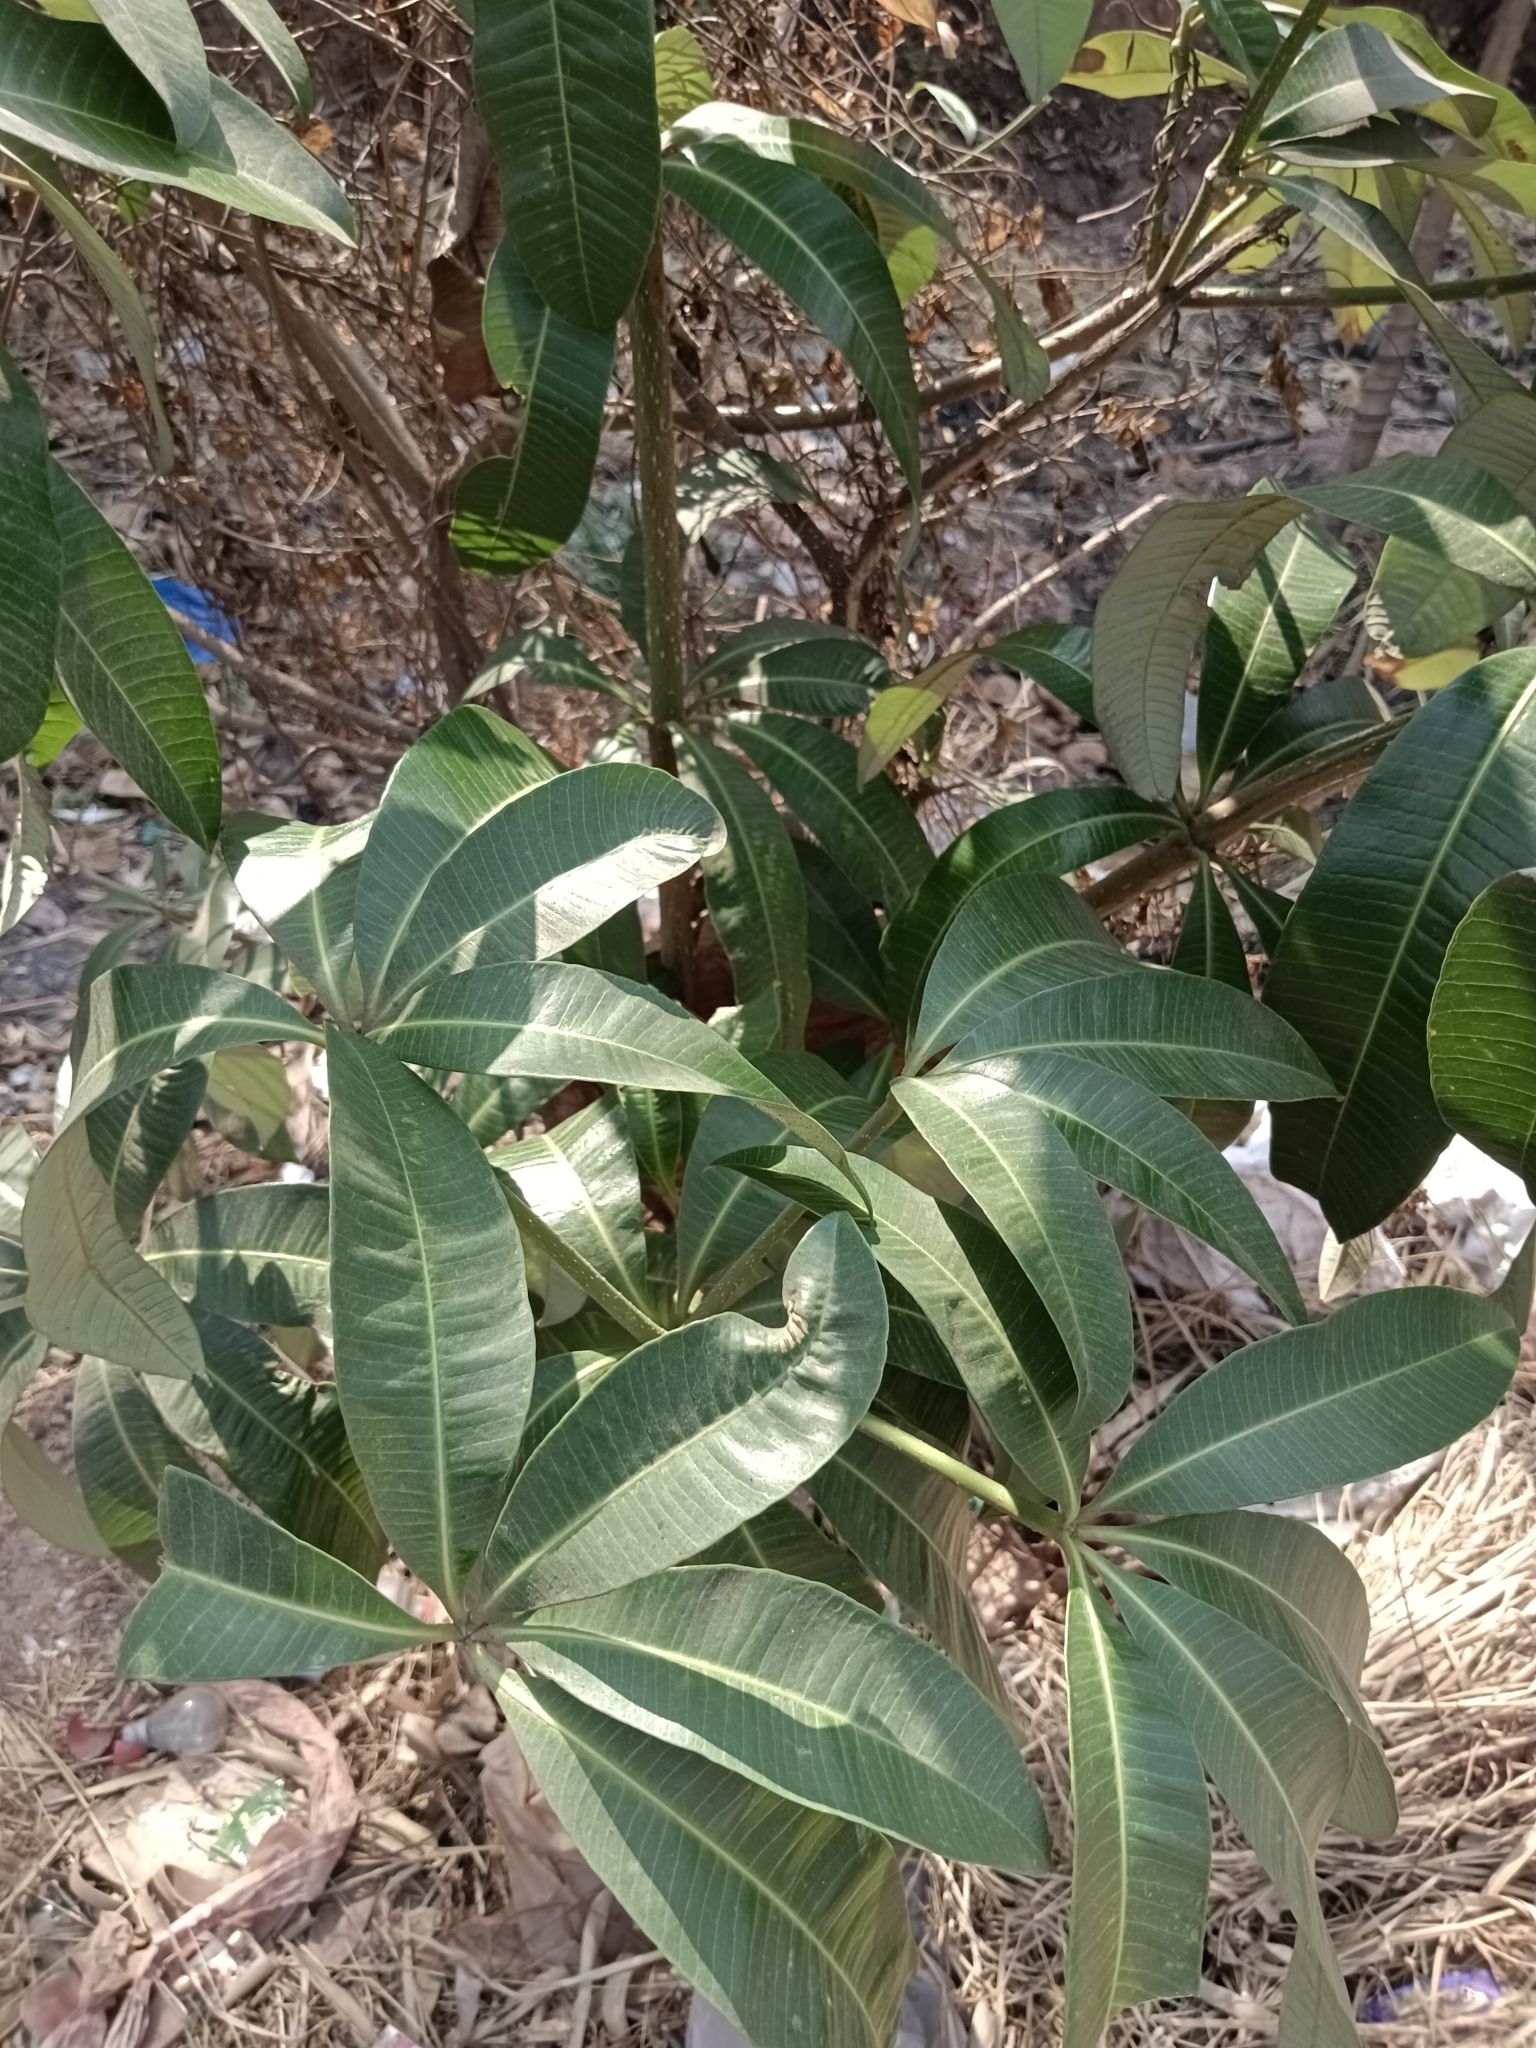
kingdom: Plantae
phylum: Tracheophyta
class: Magnoliopsida
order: Gentianales
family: Apocynaceae
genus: Alstonia
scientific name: Alstonia scholaris
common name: White cheesewood
